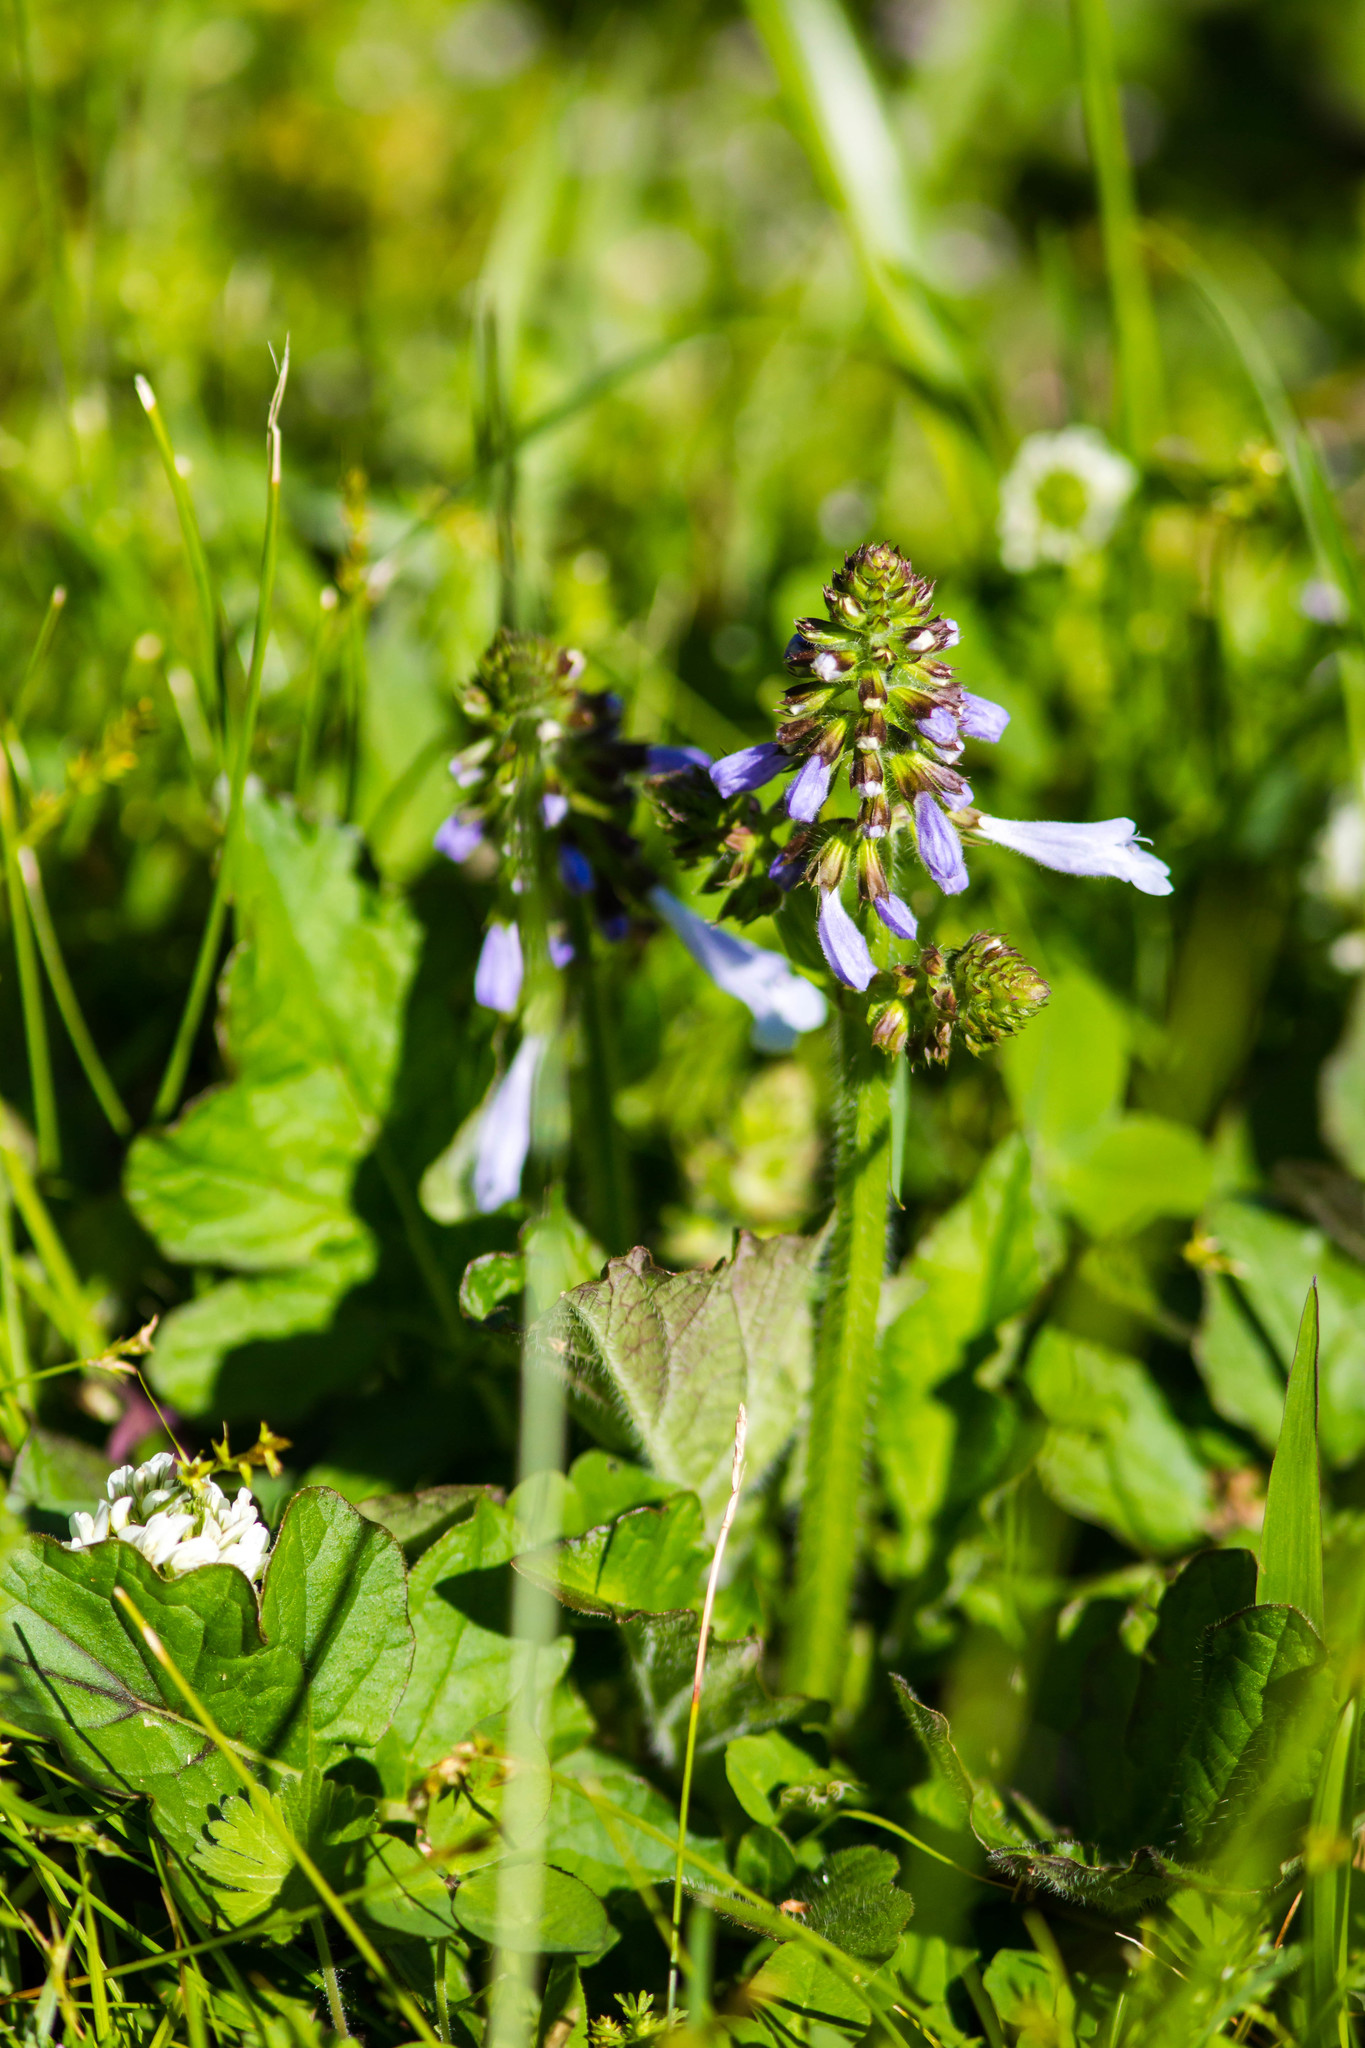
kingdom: Plantae
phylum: Tracheophyta
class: Magnoliopsida
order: Lamiales
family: Lamiaceae
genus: Salvia
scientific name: Salvia lyrata
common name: Cancerweed
